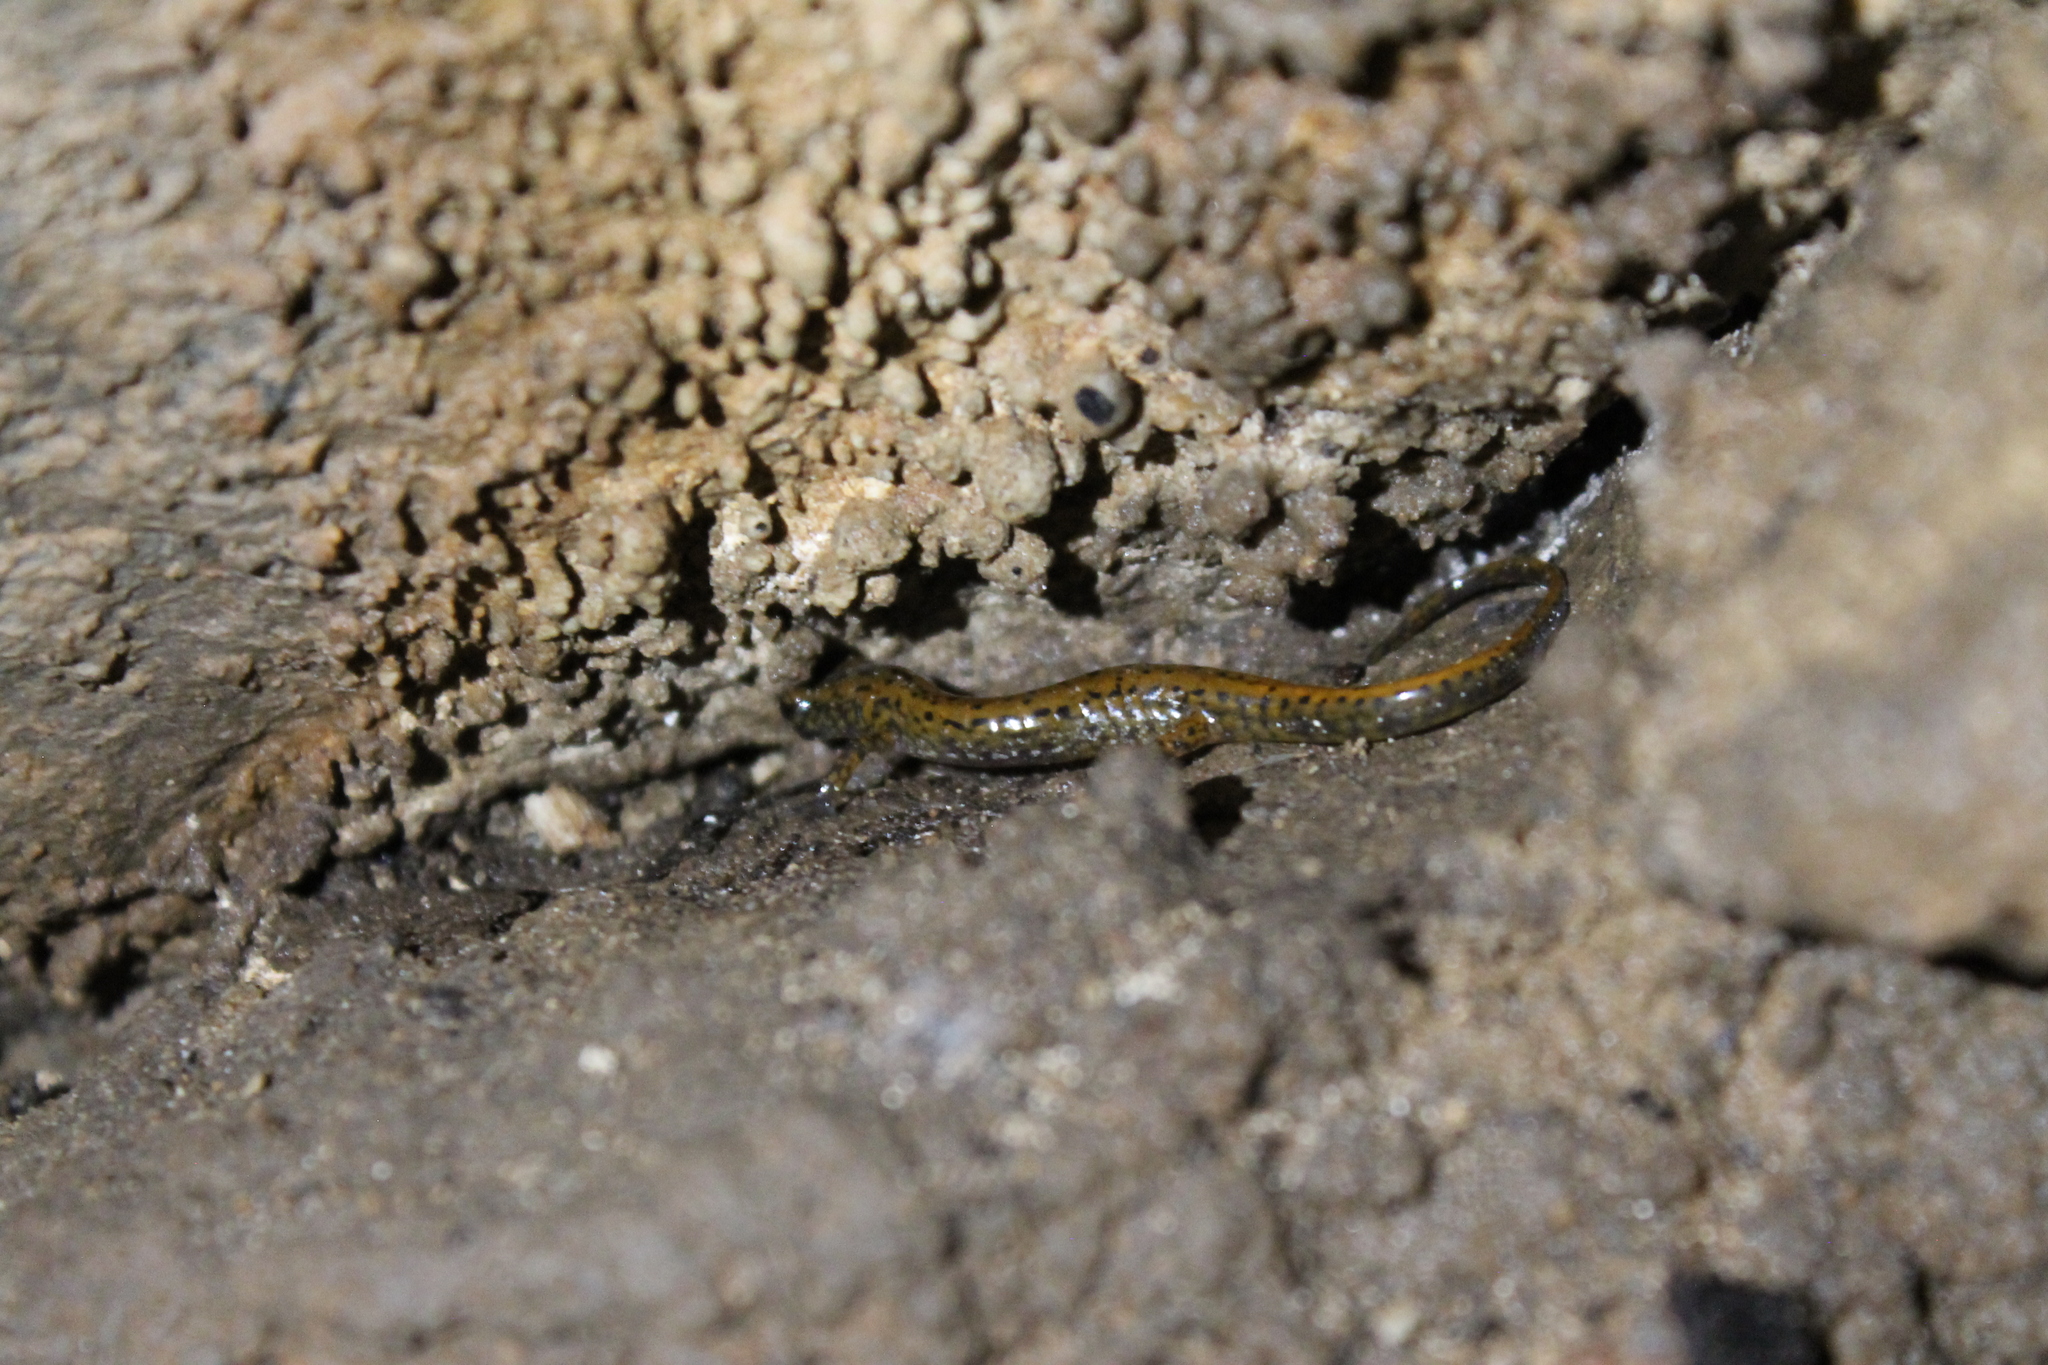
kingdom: Animalia
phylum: Chordata
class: Amphibia
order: Caudata
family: Plethodontidae
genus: Eurycea
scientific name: Eurycea lucifuga
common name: Cave salamander
